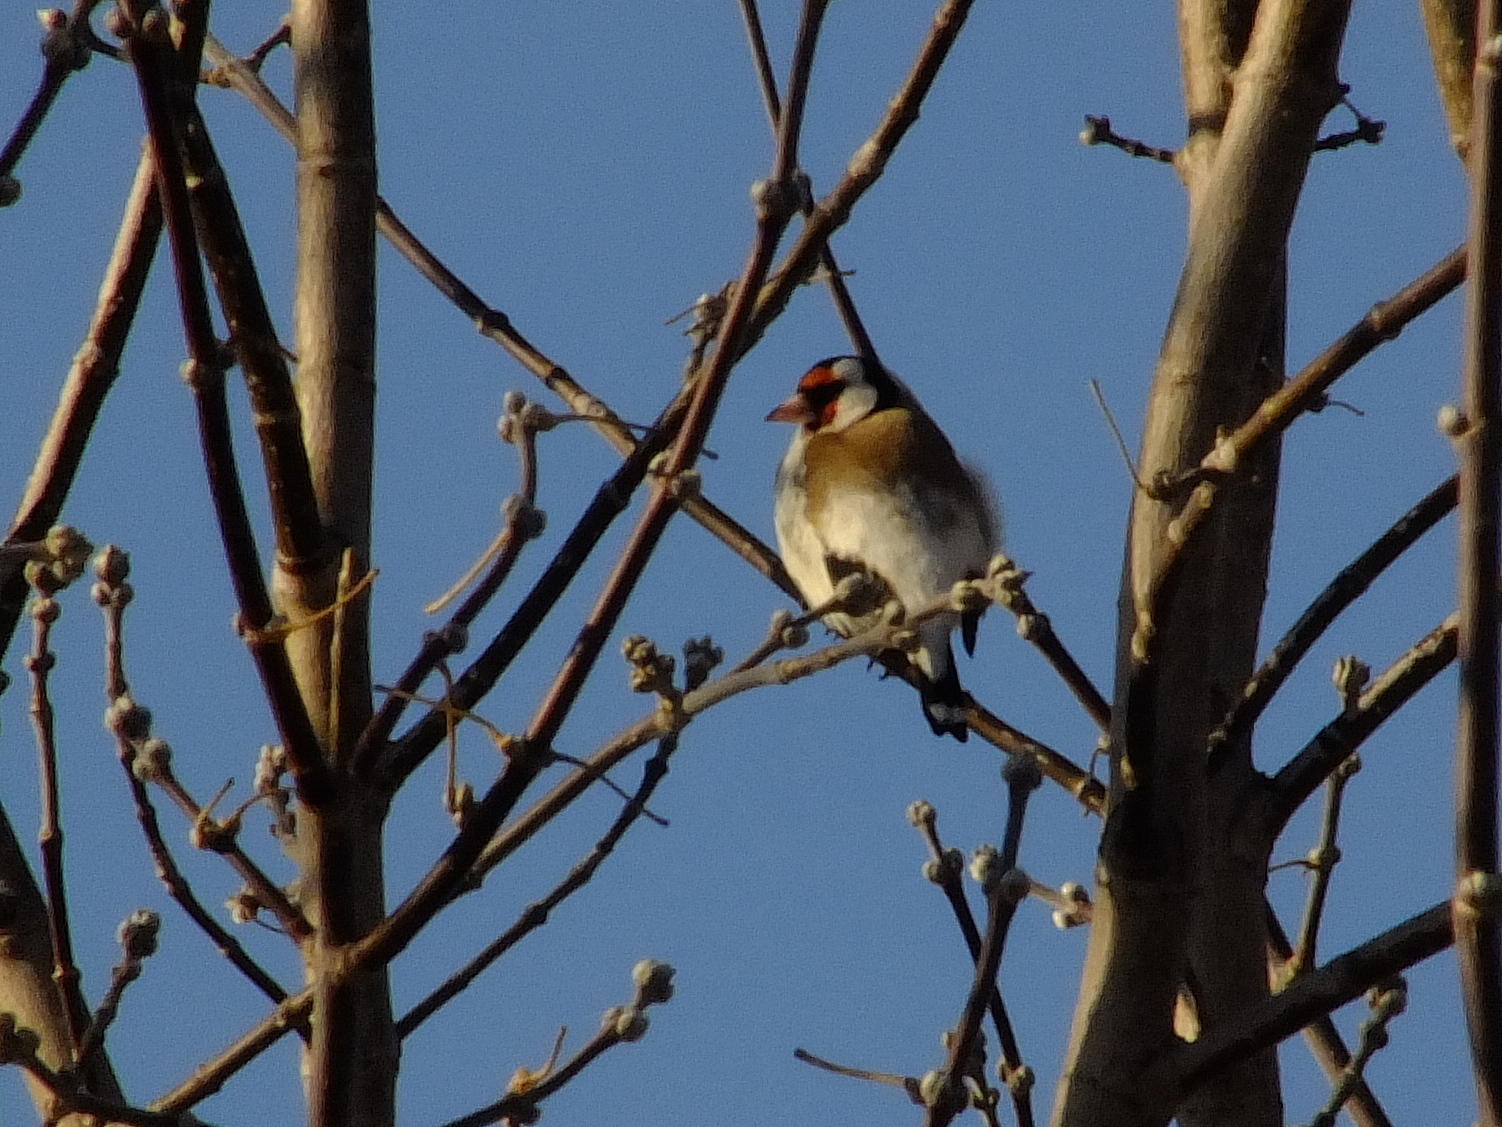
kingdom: Animalia
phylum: Chordata
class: Aves
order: Passeriformes
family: Fringillidae
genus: Carduelis
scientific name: Carduelis carduelis
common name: European goldfinch
